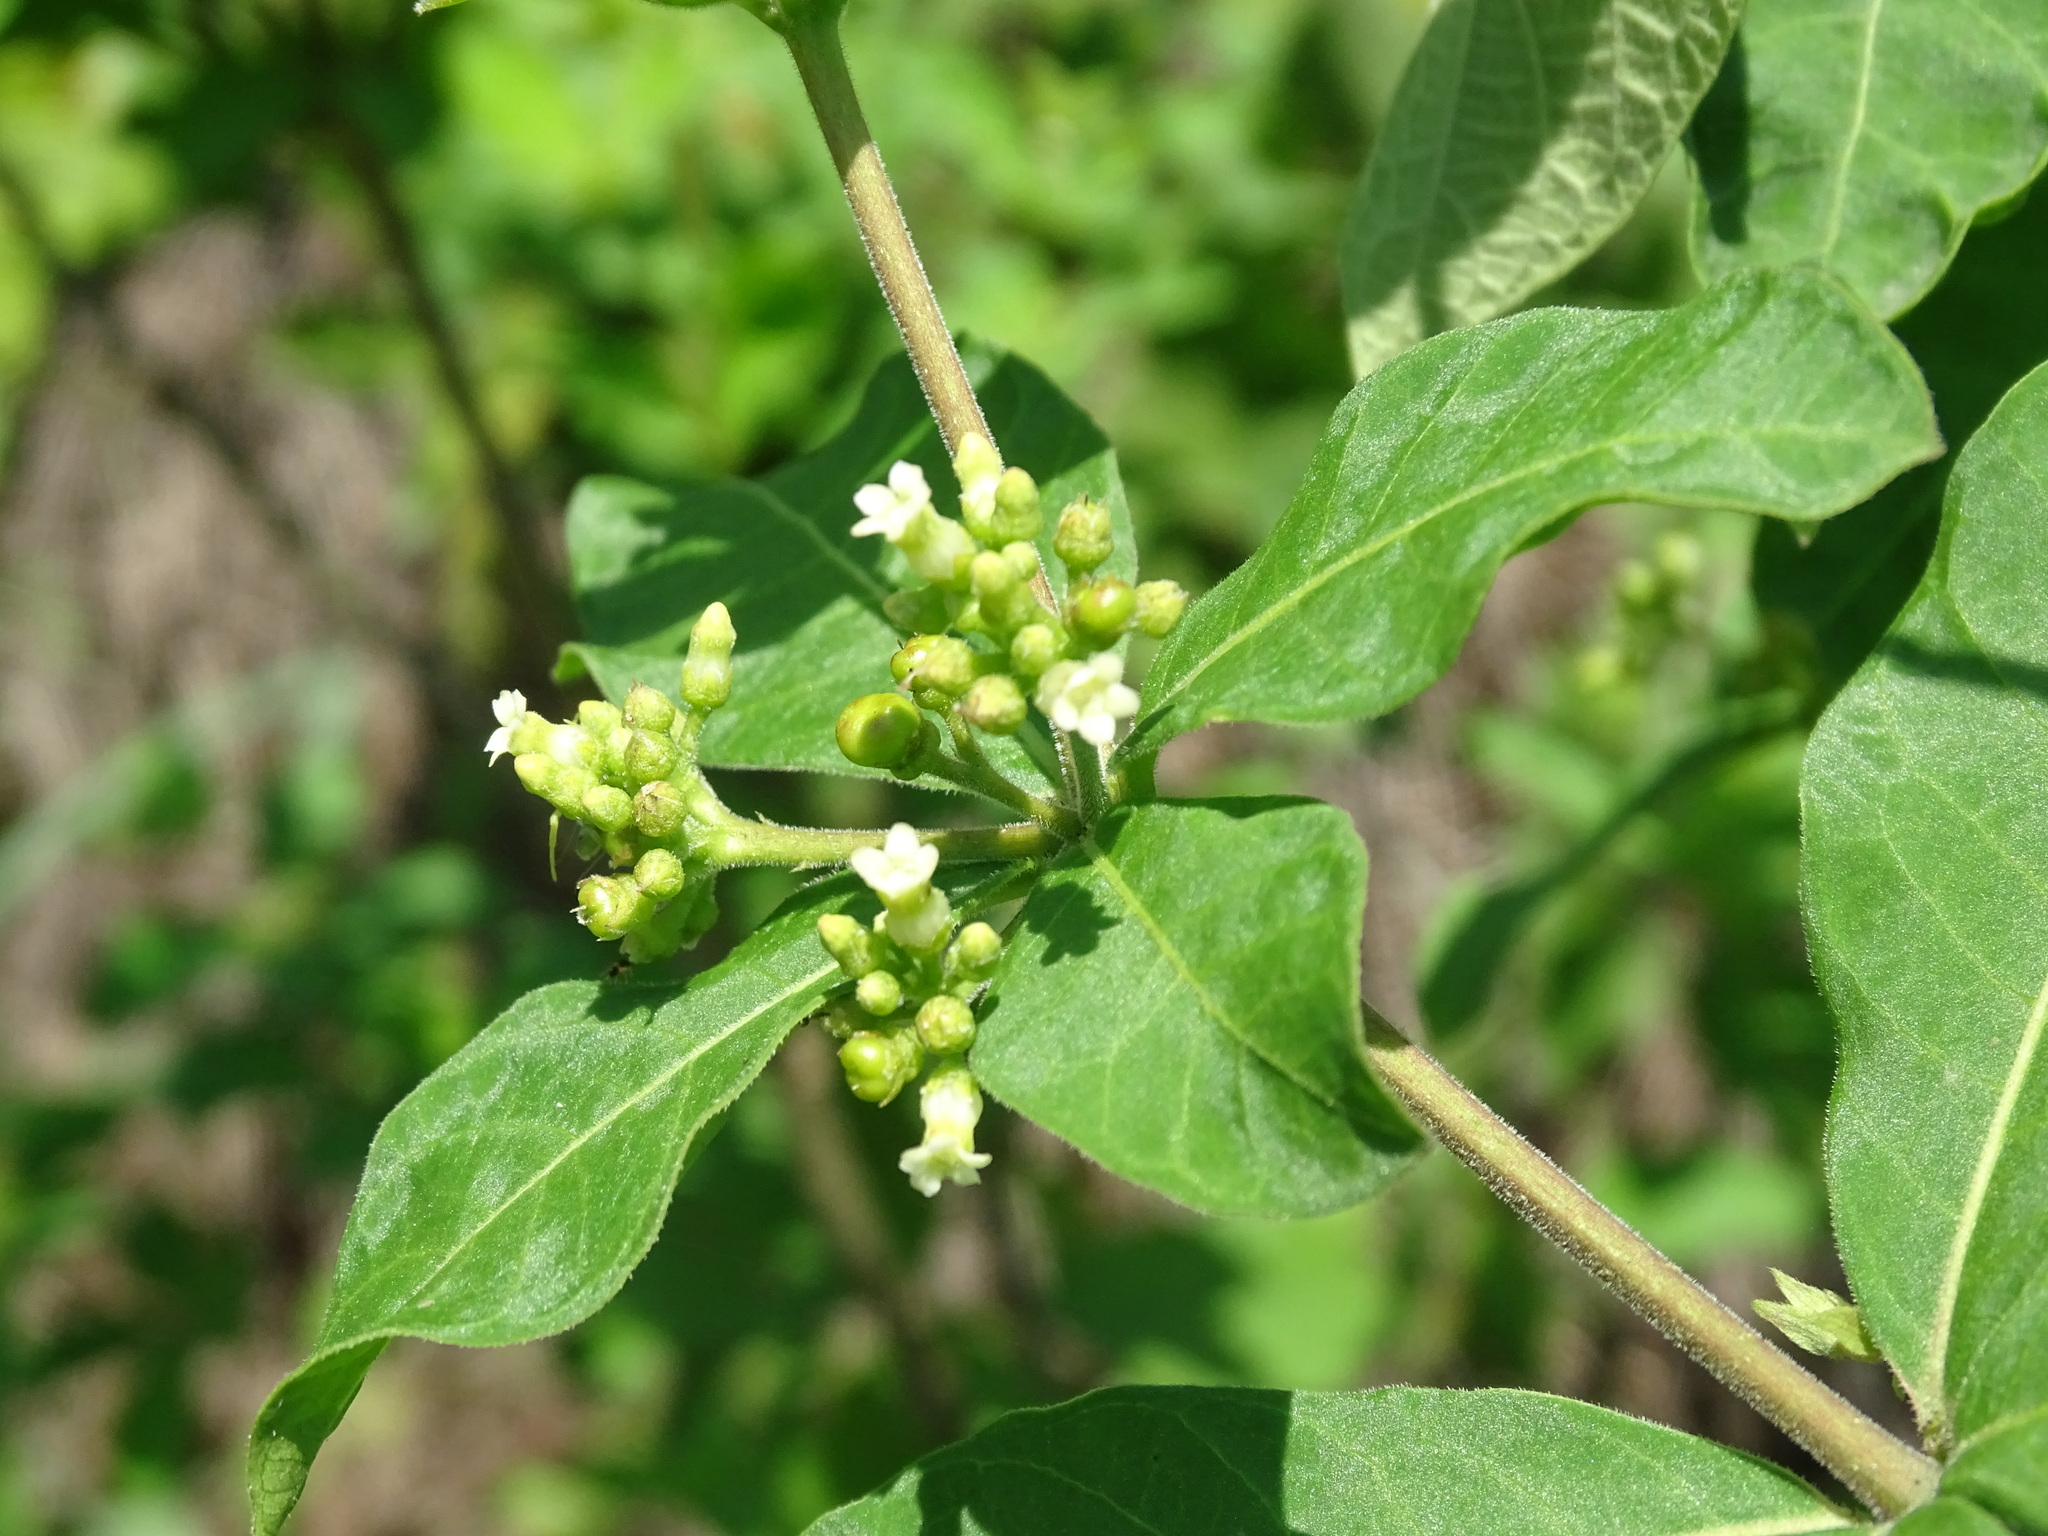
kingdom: Plantae
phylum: Tracheophyta
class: Magnoliopsida
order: Gentianales
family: Apocynaceae
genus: Rauvolfia
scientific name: Rauvolfia tetraphylla
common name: Four-leaf devil-pepper
